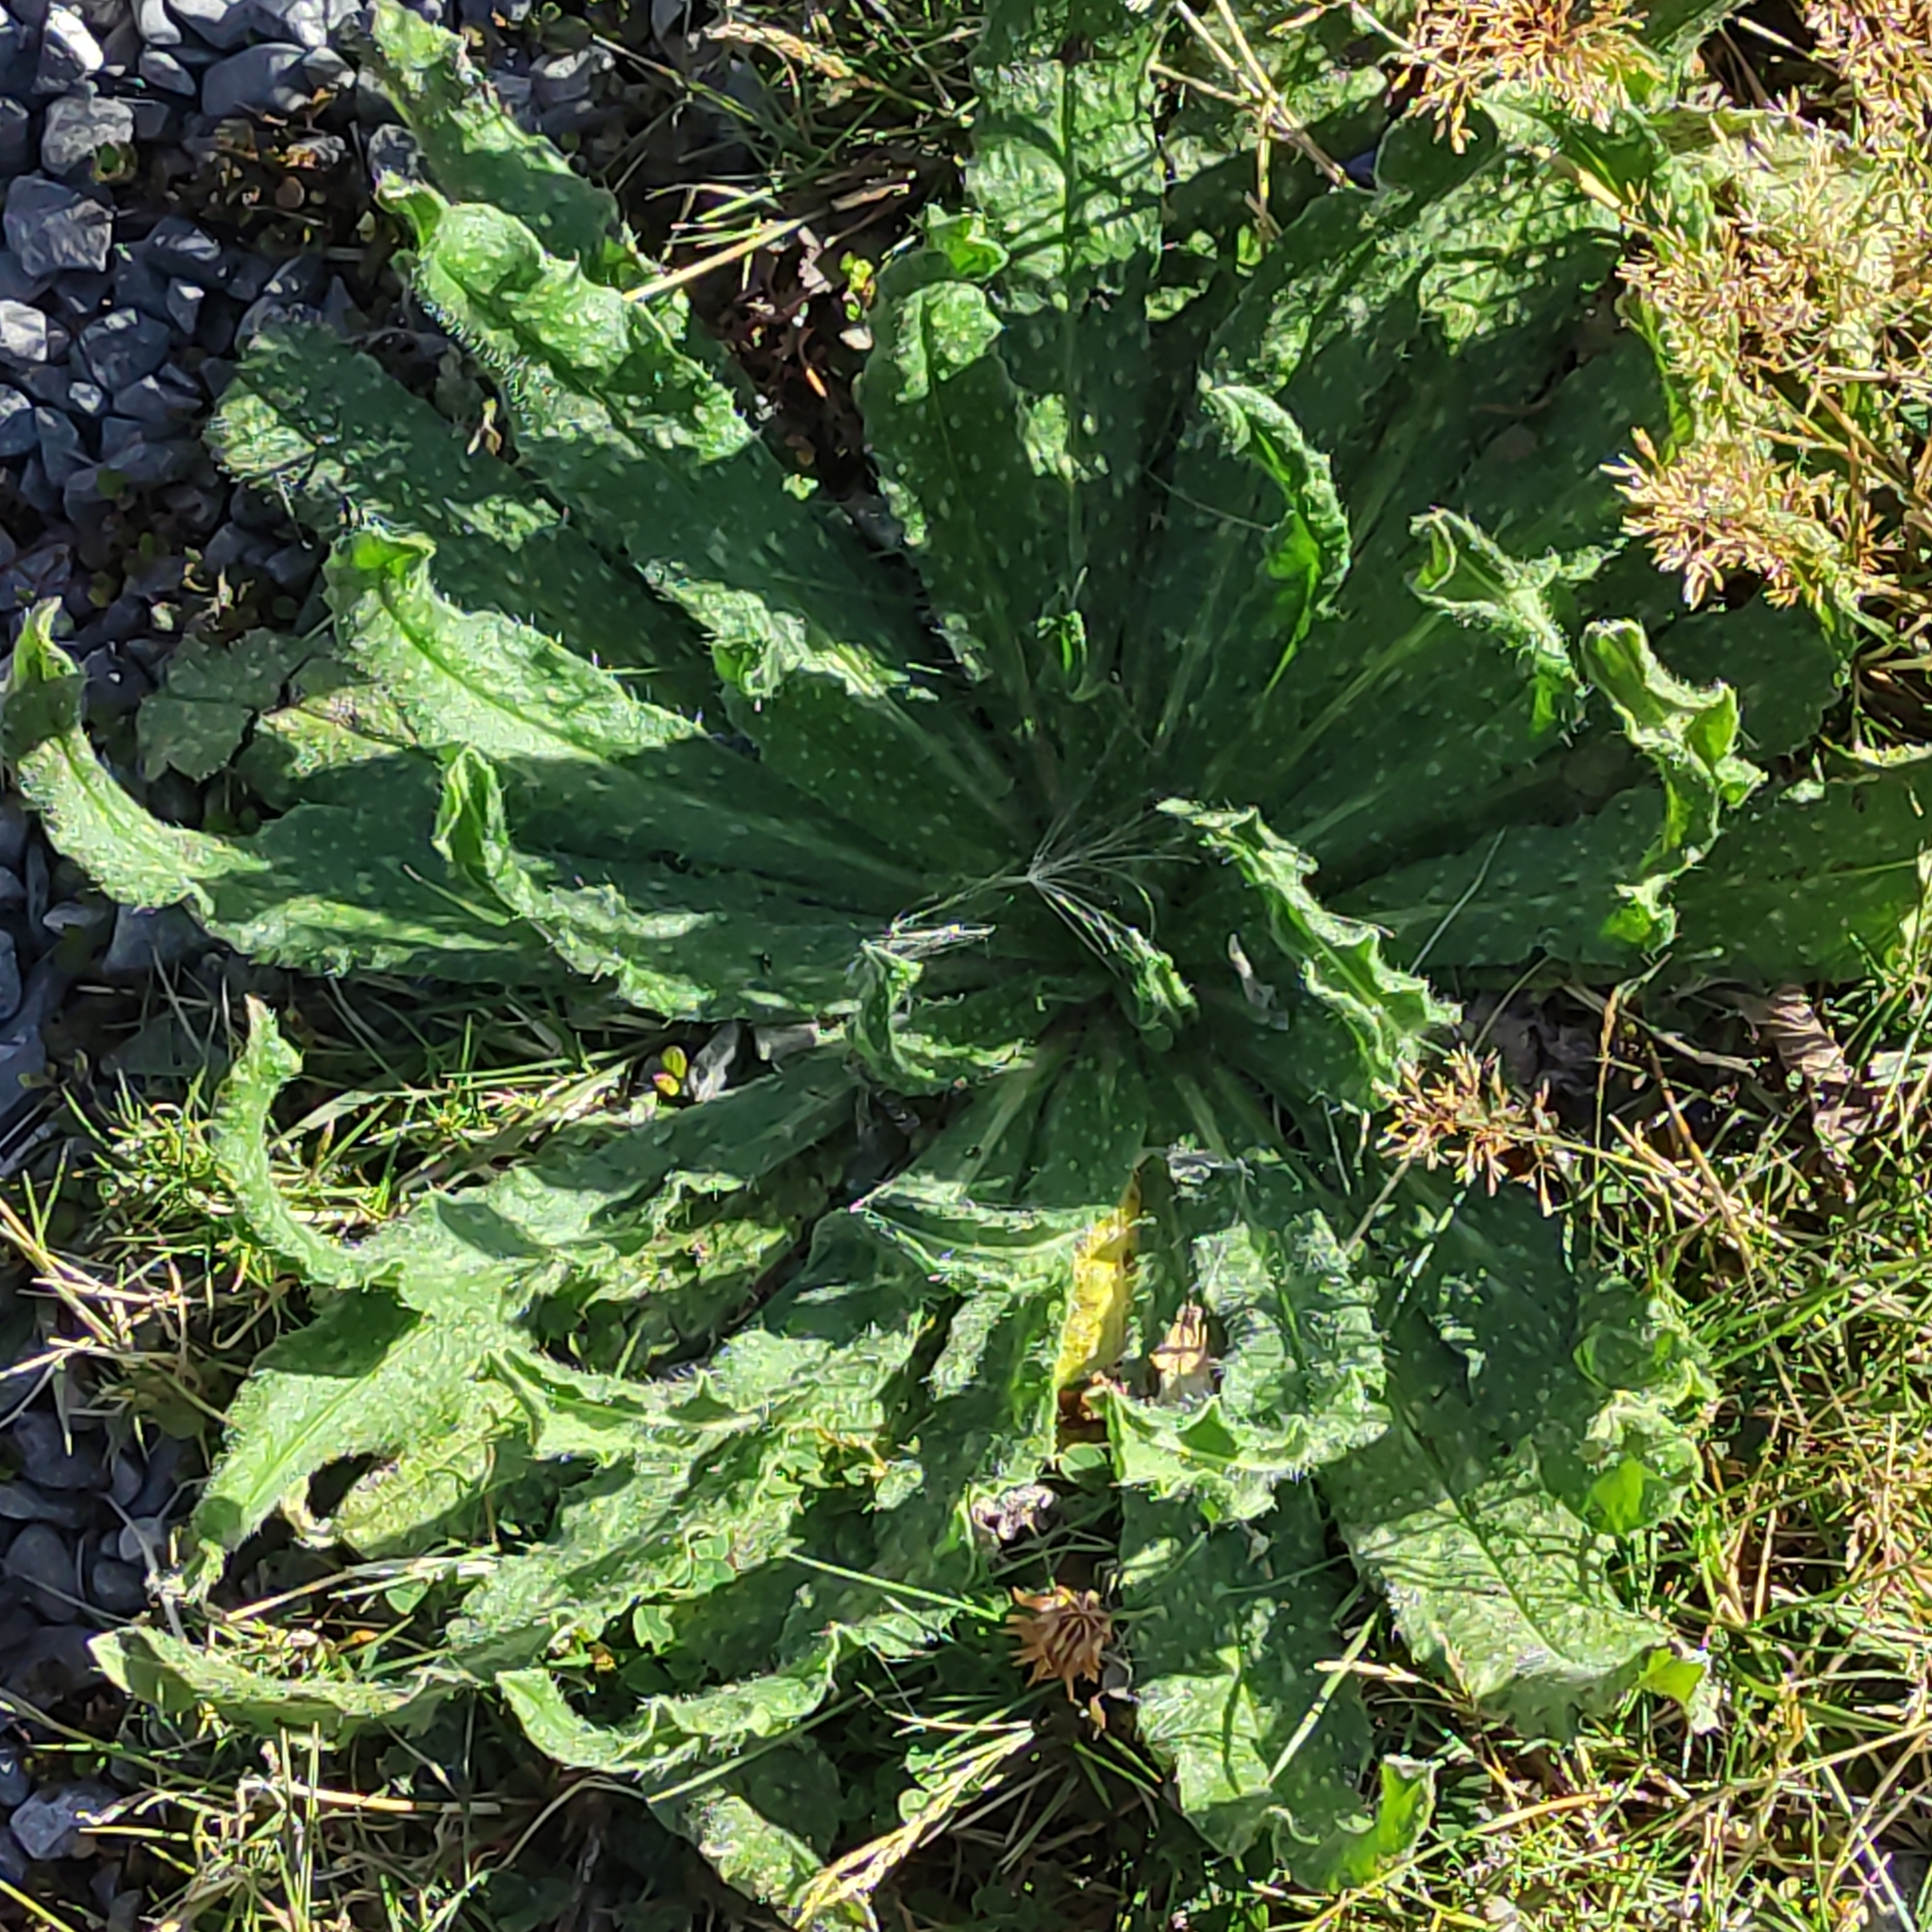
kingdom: Plantae
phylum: Tracheophyta
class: Magnoliopsida
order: Asterales
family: Asteraceae
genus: Helminthotheca
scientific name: Helminthotheca echioides
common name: Ox-tongue
